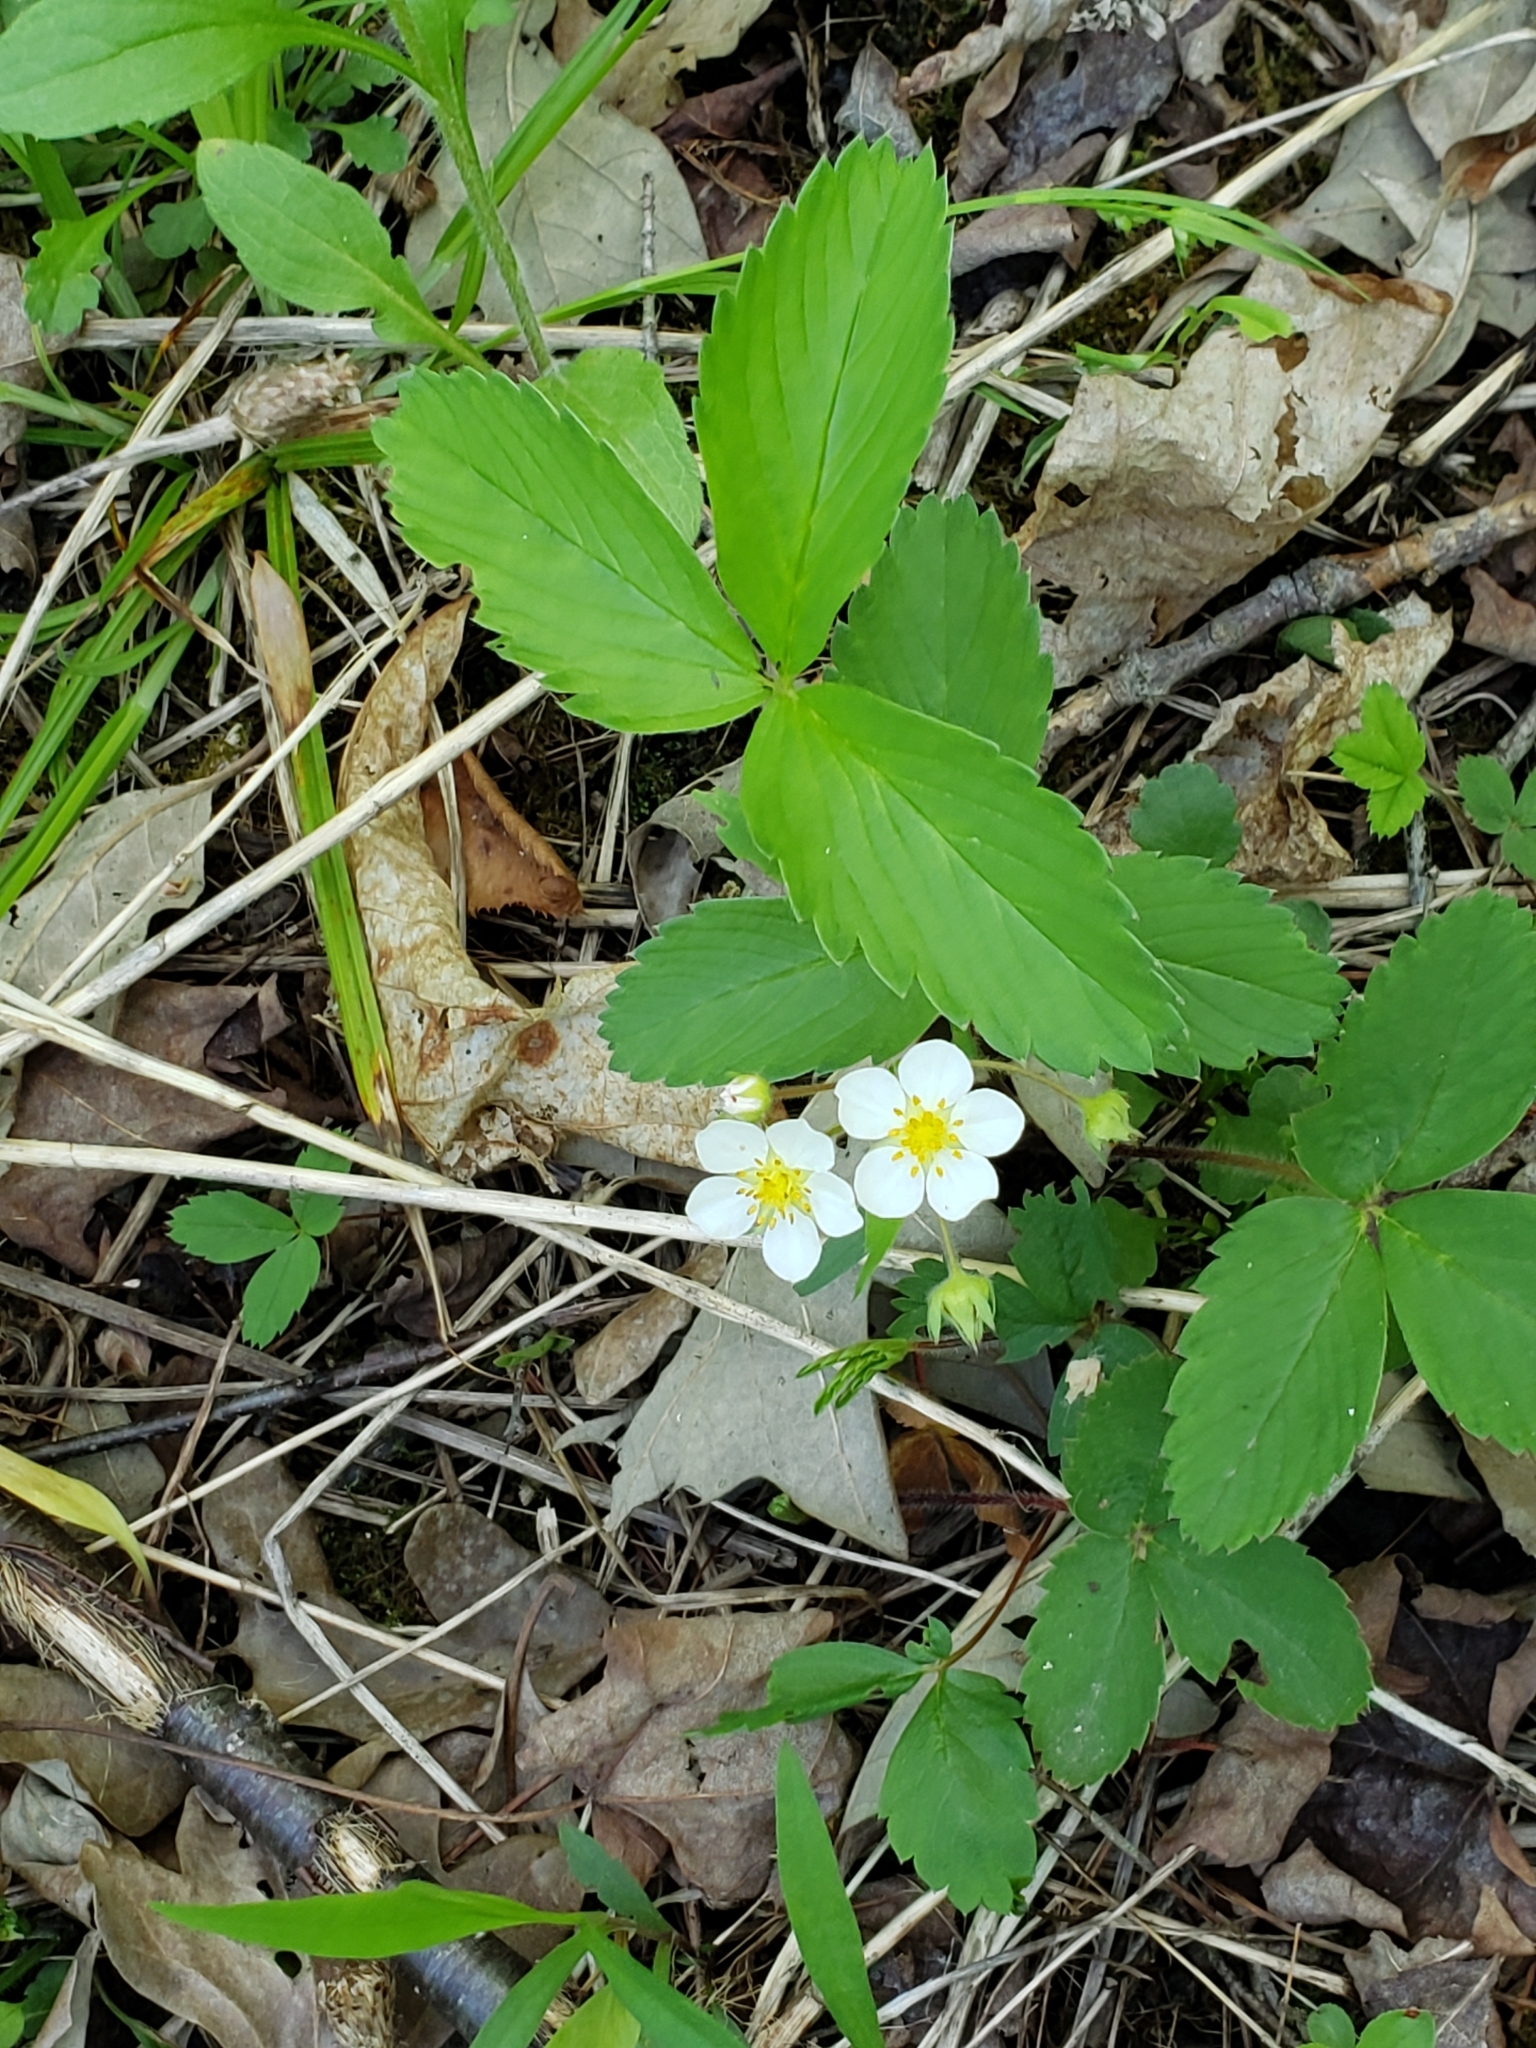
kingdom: Plantae
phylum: Tracheophyta
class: Magnoliopsida
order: Rosales
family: Rosaceae
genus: Fragaria
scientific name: Fragaria virginiana
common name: Thickleaved wild strawberry
